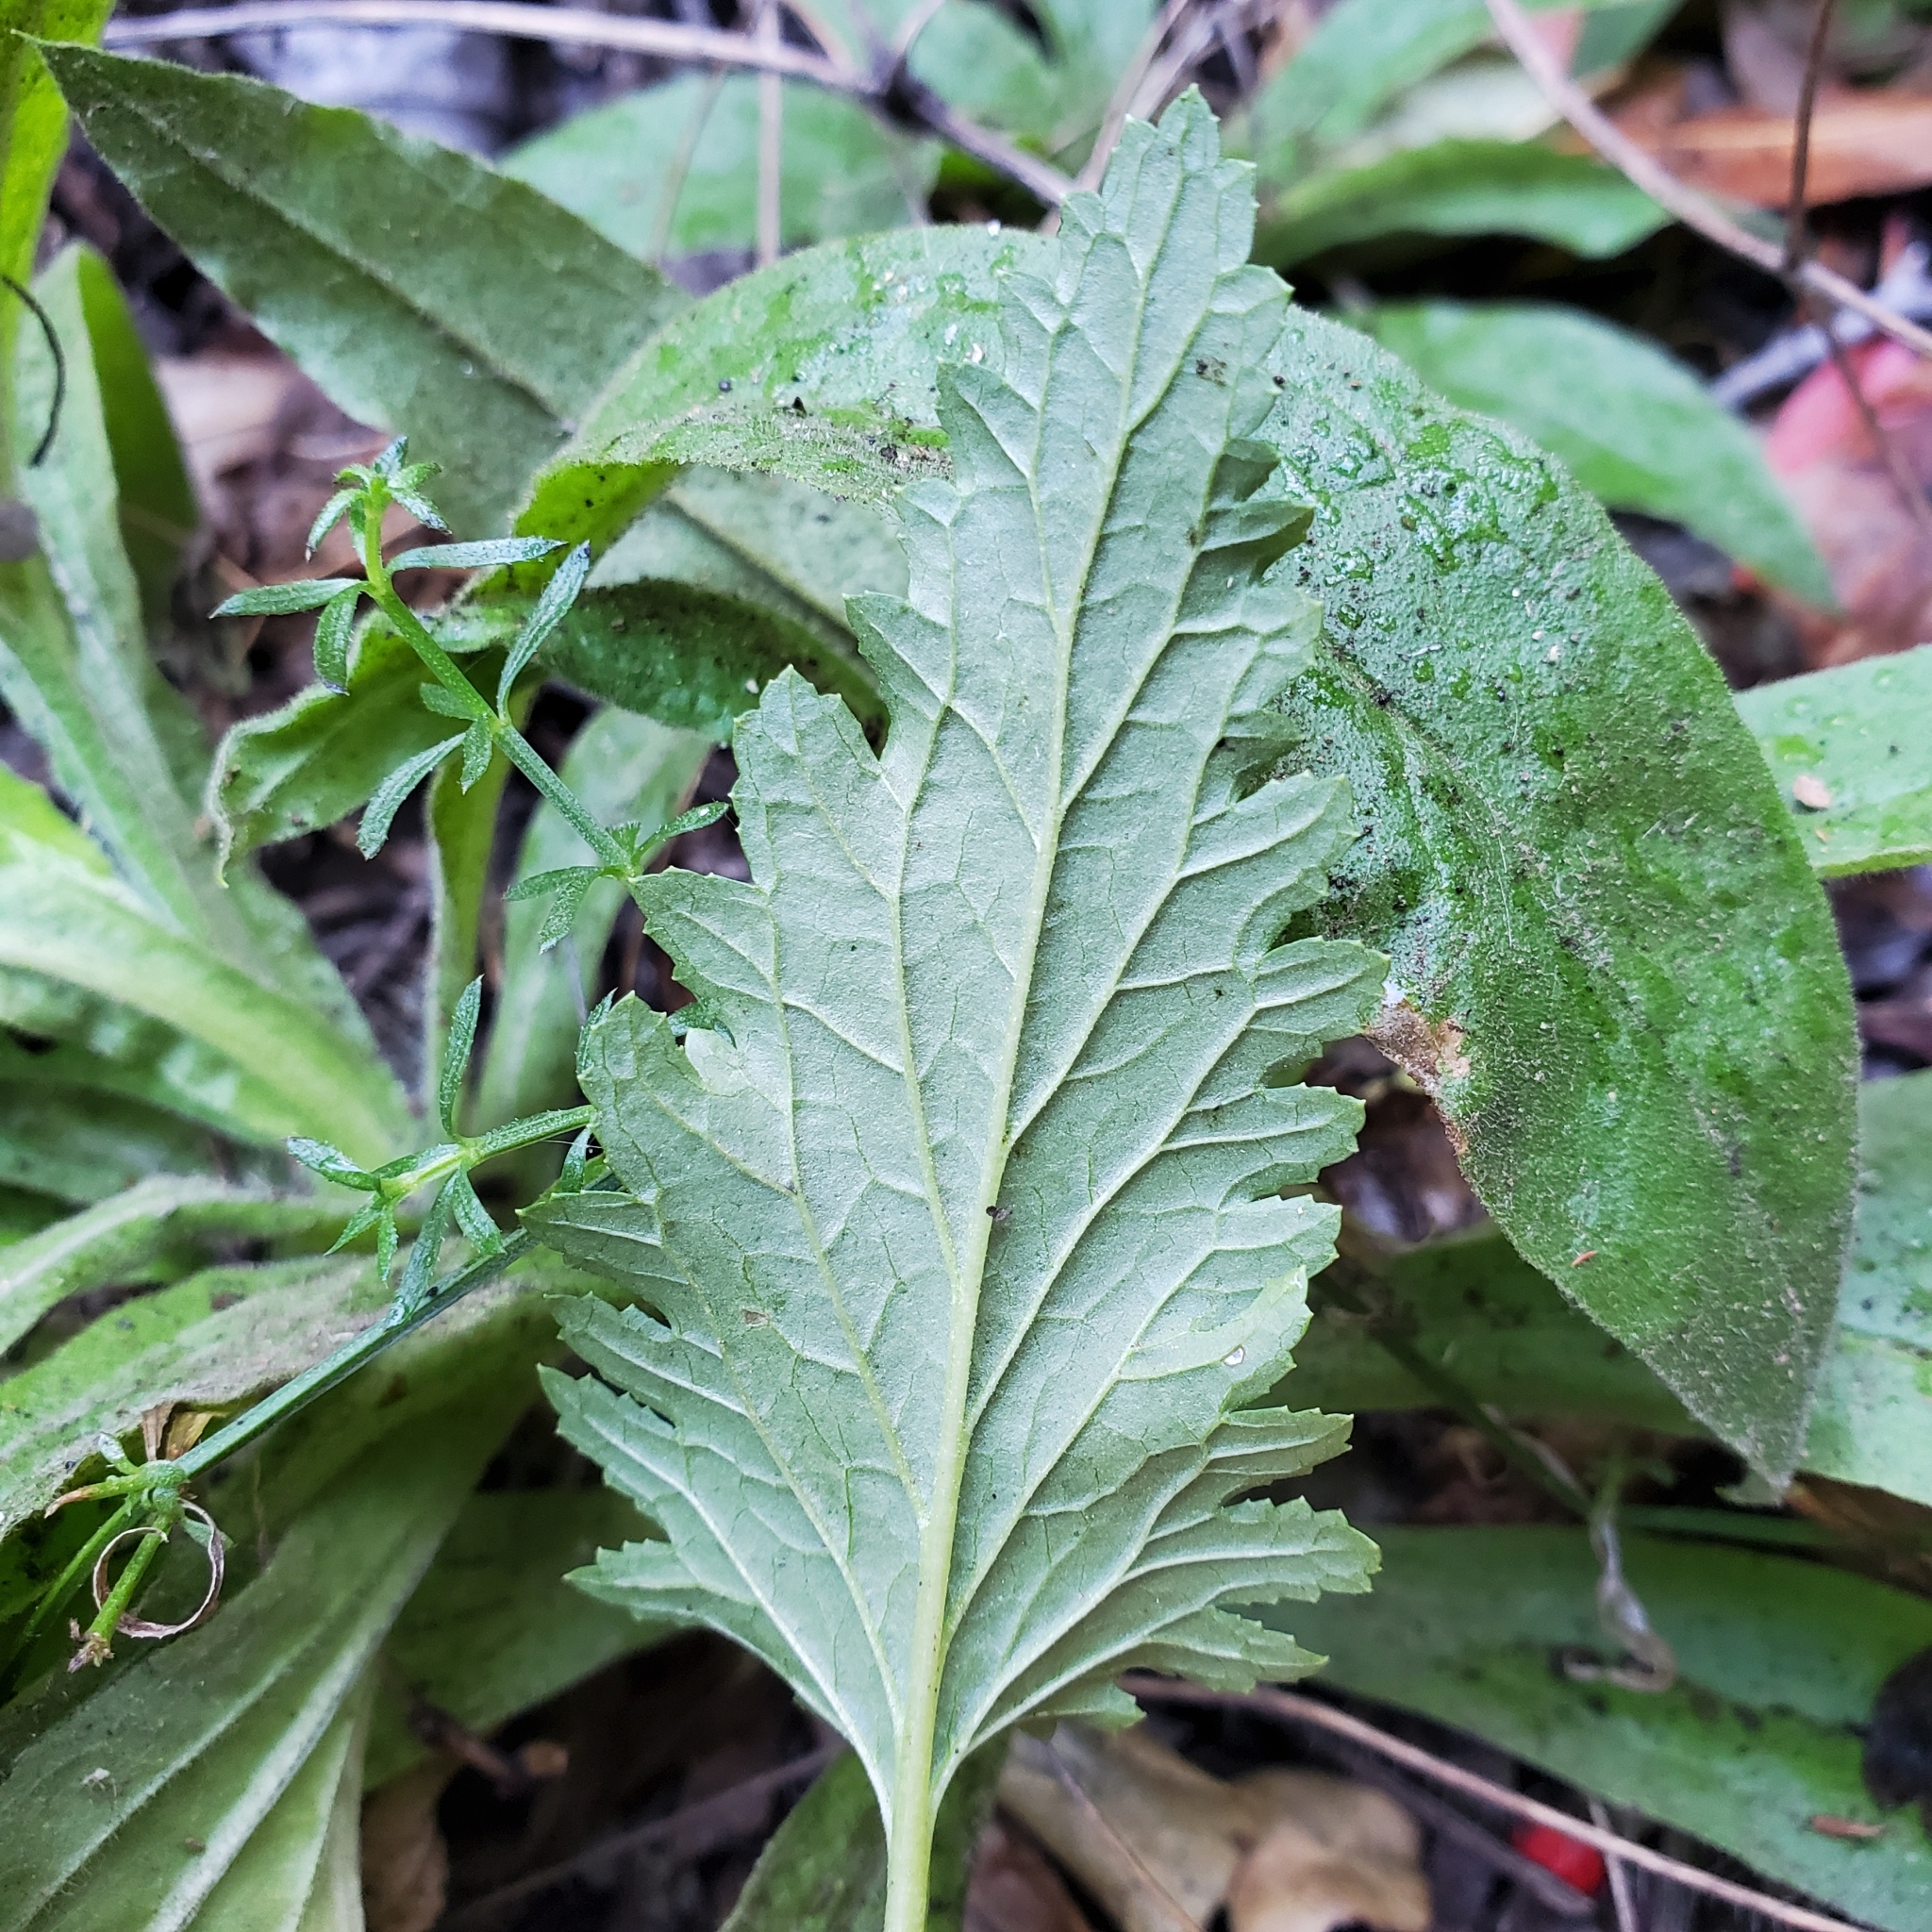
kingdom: Plantae
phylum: Tracheophyta
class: Magnoliopsida
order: Lamiales
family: Scrophulariaceae
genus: Scrophularia
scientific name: Scrophularia californica
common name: California figwort
